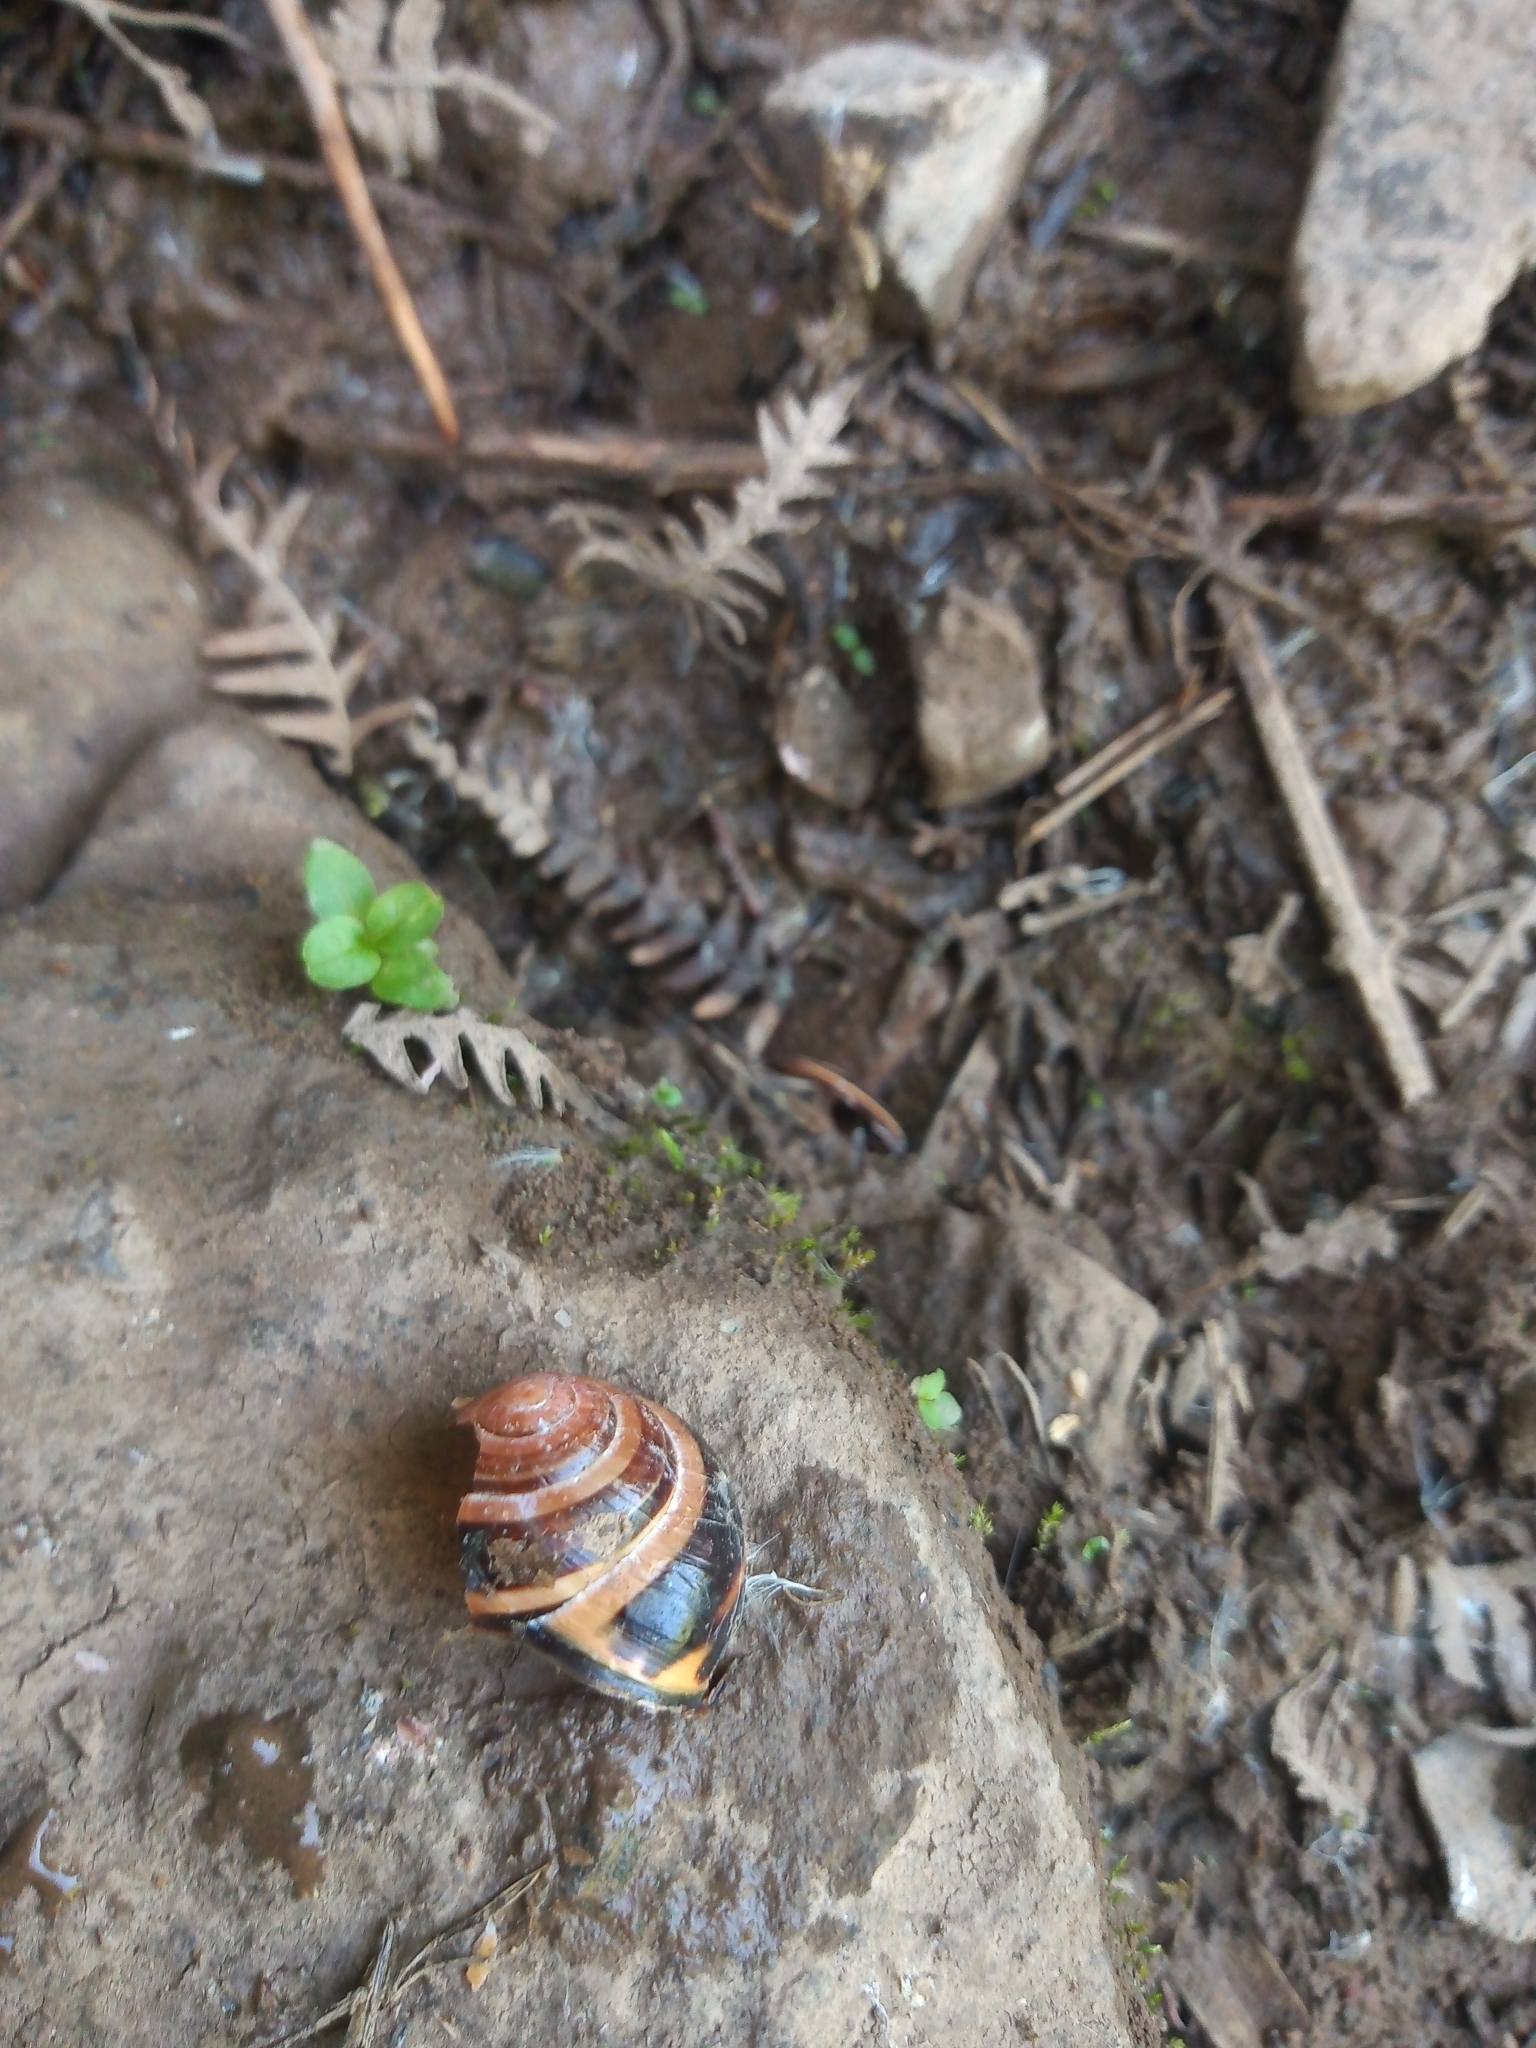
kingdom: Animalia
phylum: Mollusca
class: Gastropoda
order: Stylommatophora
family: Helicidae
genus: Cepaea
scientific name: Cepaea nemoralis
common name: Grovesnail
